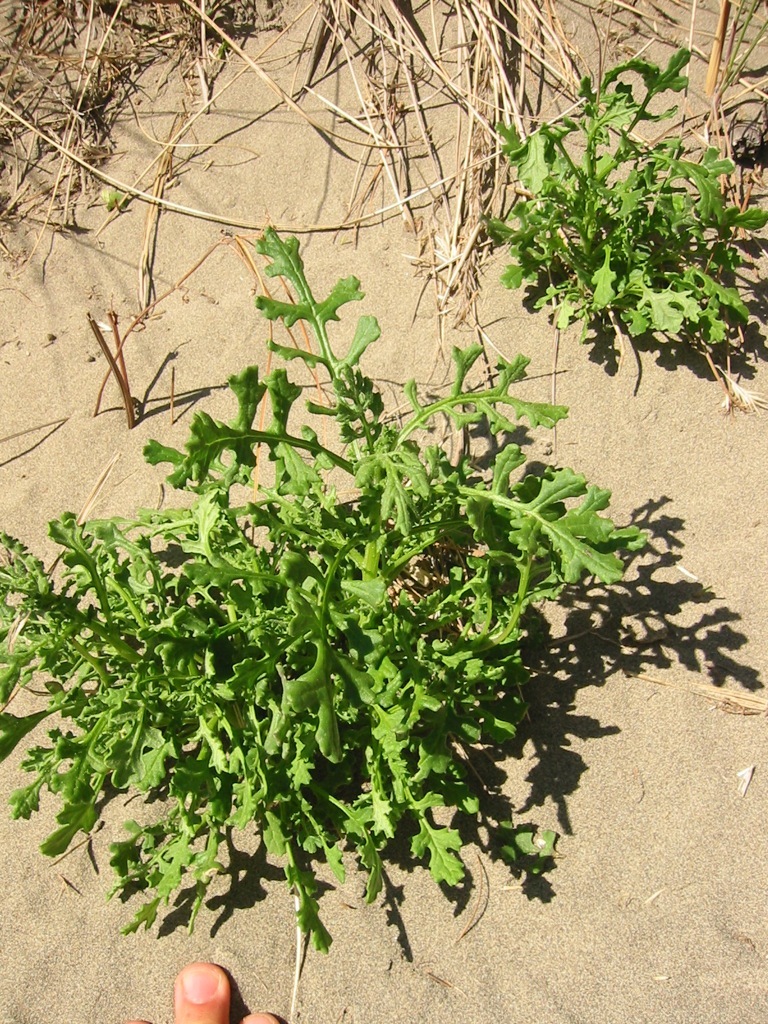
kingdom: Plantae
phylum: Tracheophyta
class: Magnoliopsida
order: Asterales
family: Asteraceae
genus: Senecio
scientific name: Senecio elegans
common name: Purple groundsel
